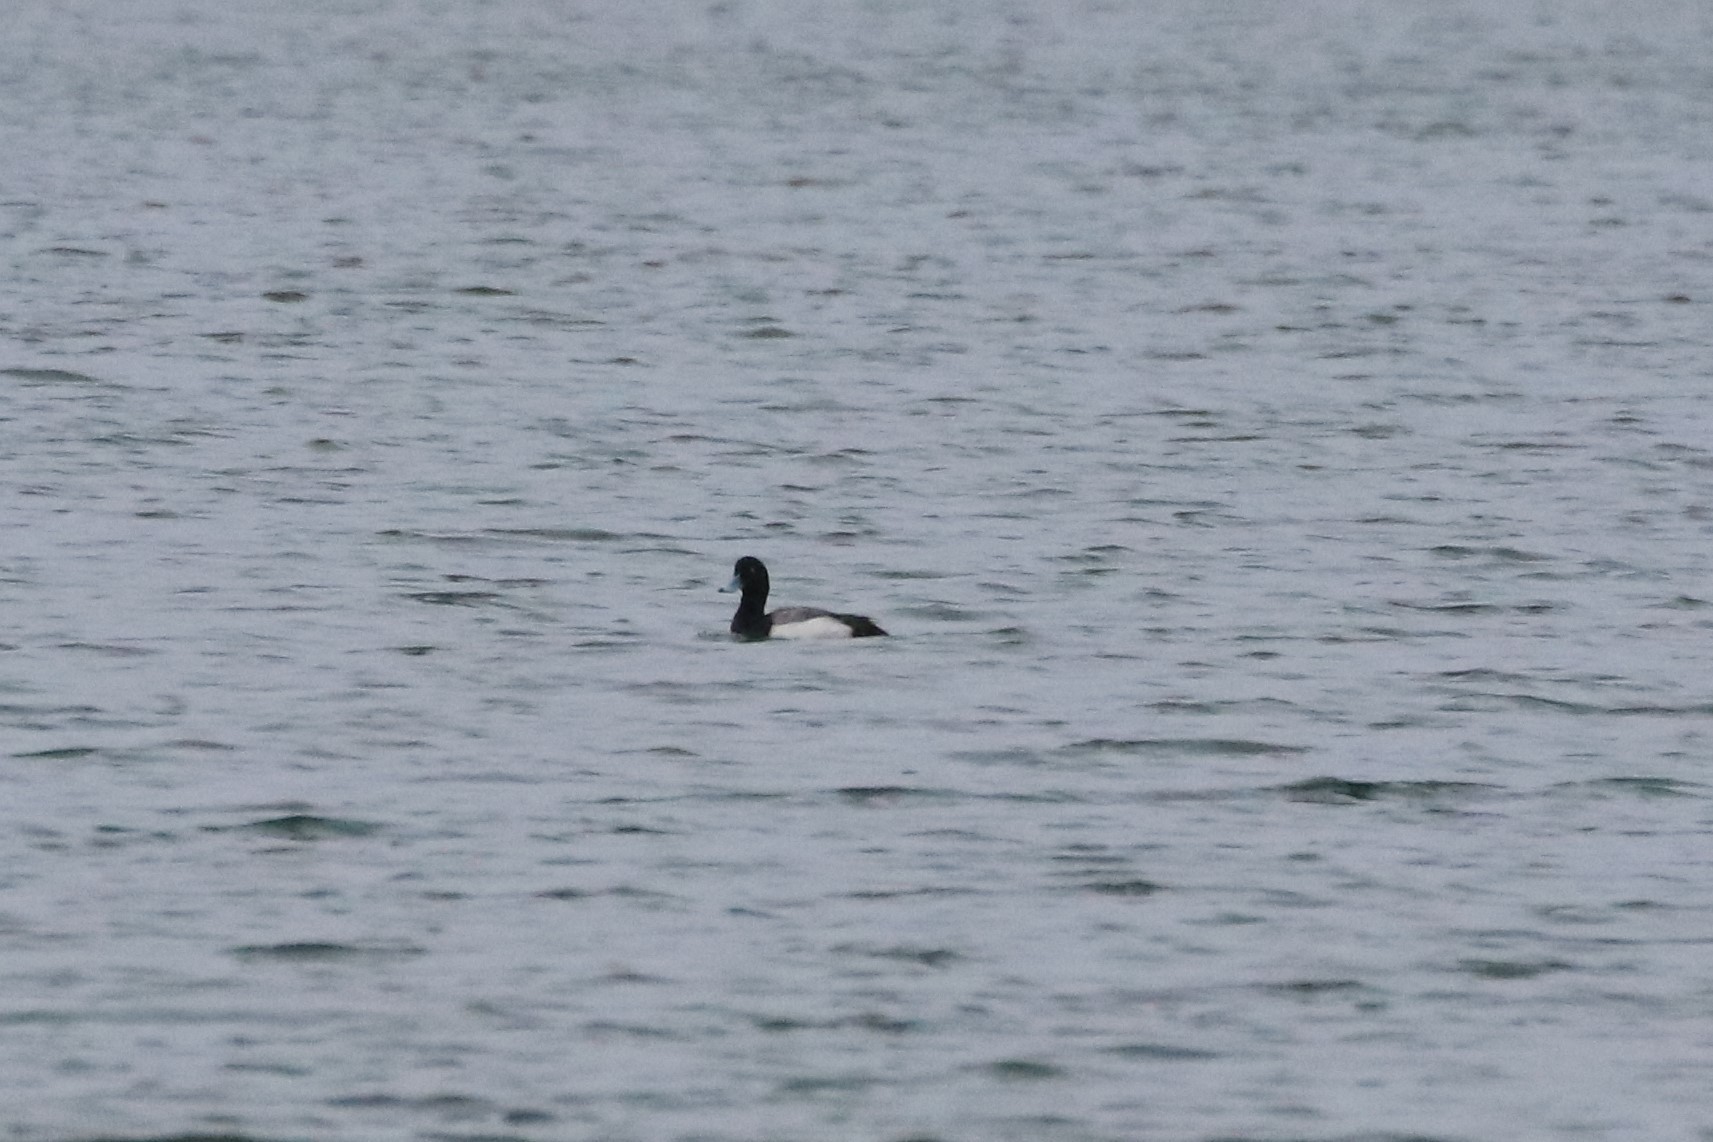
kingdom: Animalia
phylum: Chordata
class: Aves
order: Anseriformes
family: Anatidae
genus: Aythya
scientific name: Aythya marila
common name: Greater scaup
